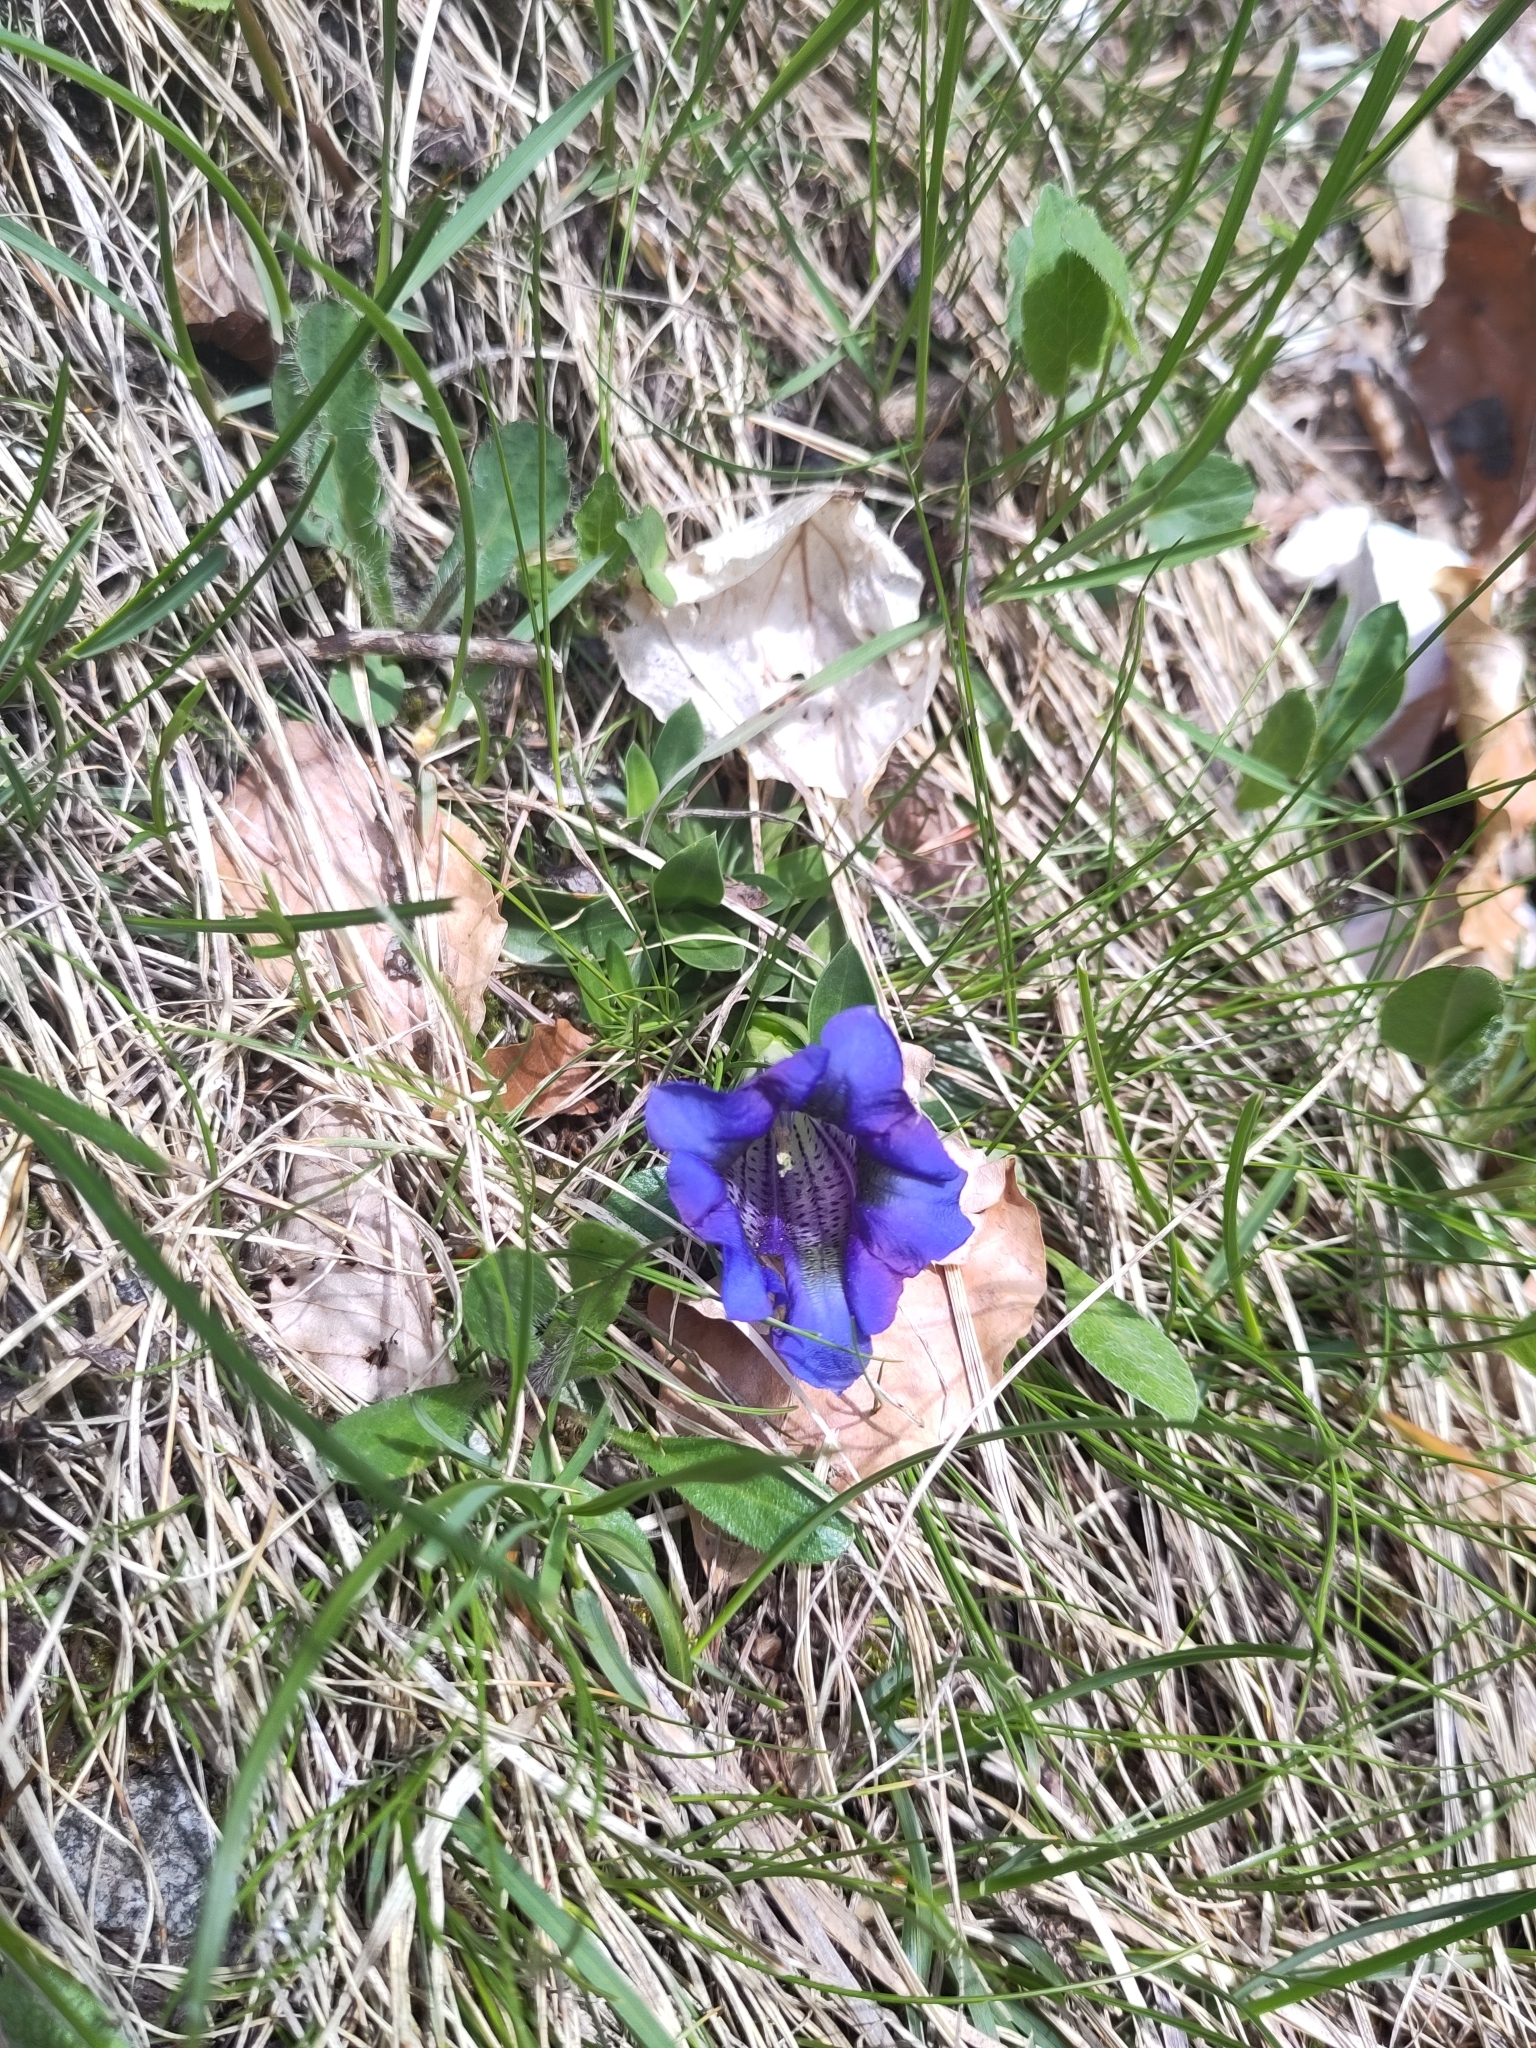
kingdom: Plantae
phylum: Tracheophyta
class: Magnoliopsida
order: Gentianales
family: Gentianaceae
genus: Gentiana
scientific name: Gentiana clusii
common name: Trumpet gentian
